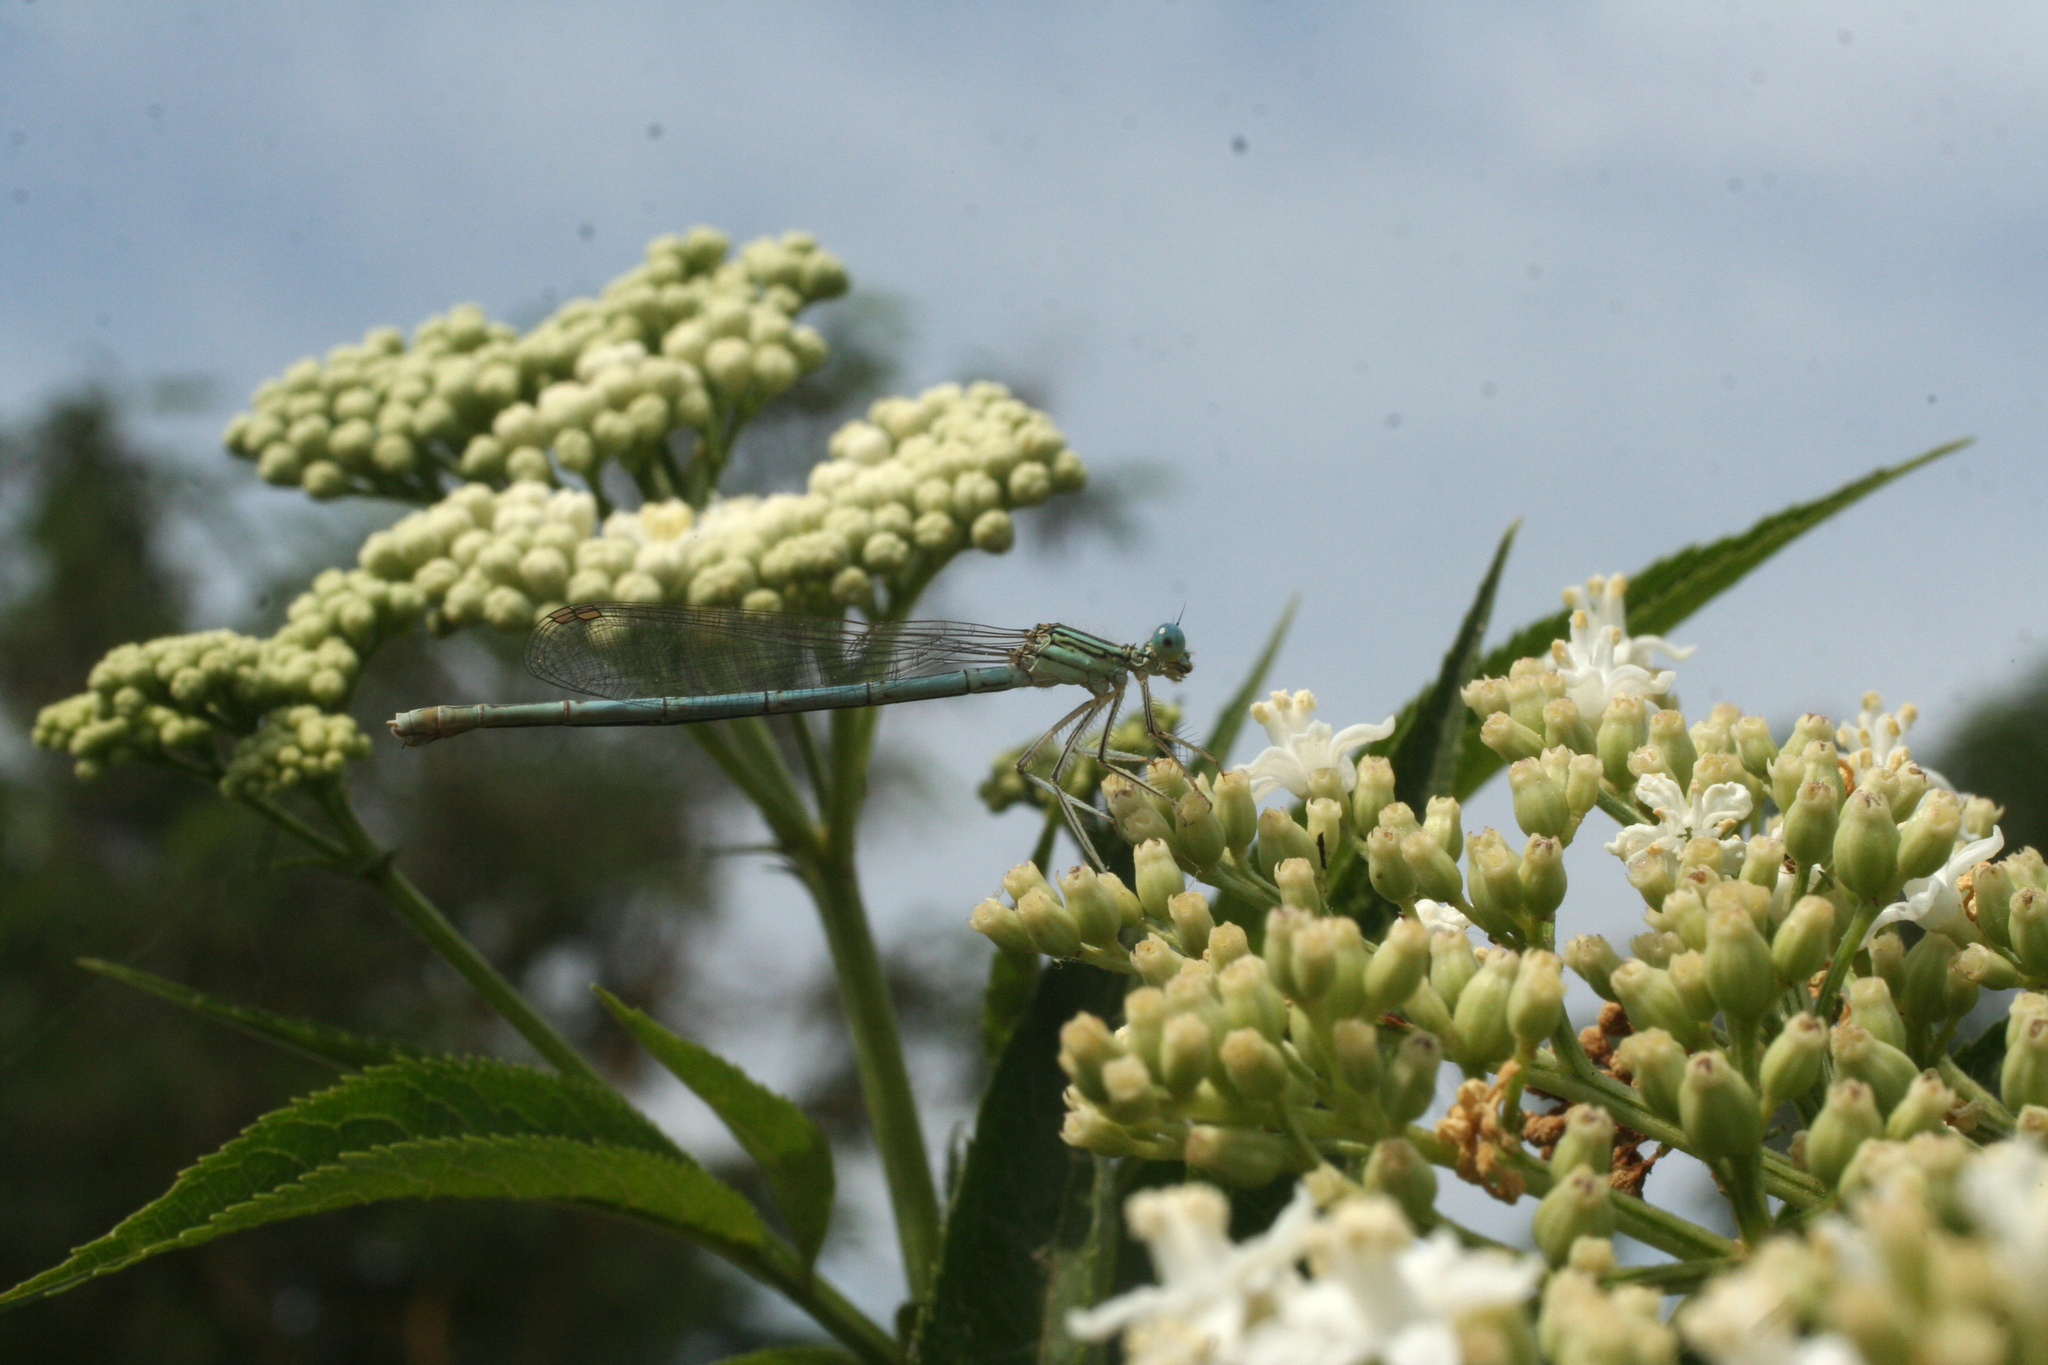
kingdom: Animalia
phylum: Arthropoda
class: Insecta
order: Odonata
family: Platycnemididae
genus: Platycnemis
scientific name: Platycnemis pennipes
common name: White-legged damselfly
